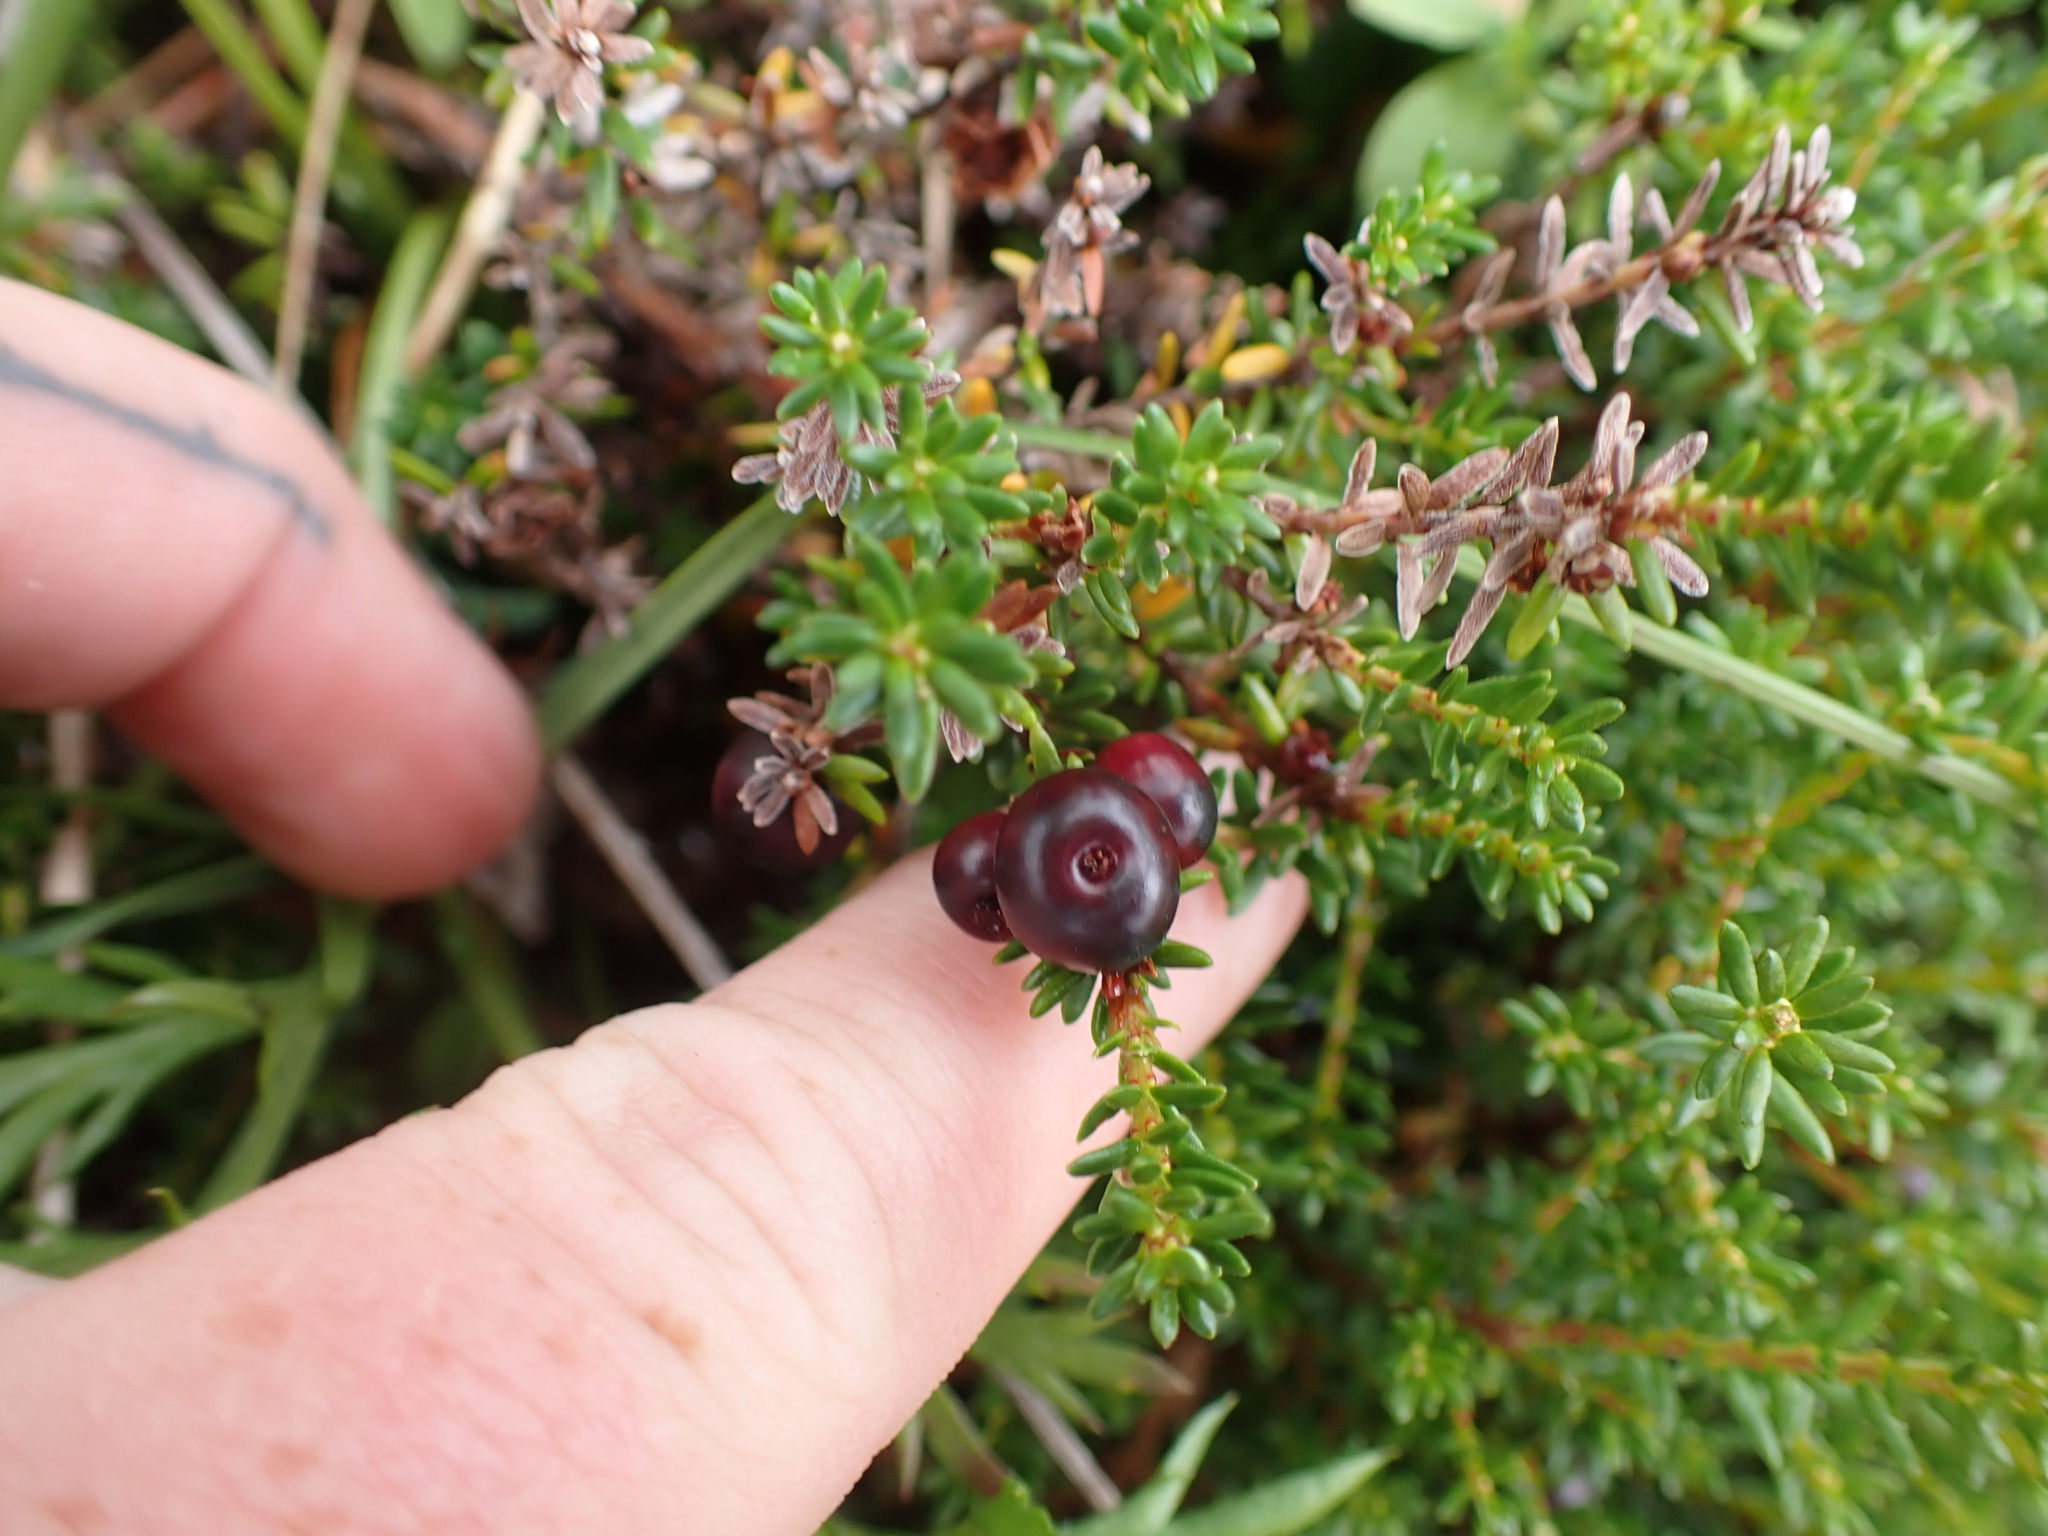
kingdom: Plantae
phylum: Tracheophyta
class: Magnoliopsida
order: Ericales
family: Ericaceae
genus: Empetrum
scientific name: Empetrum nigrum
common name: Black crowberry
